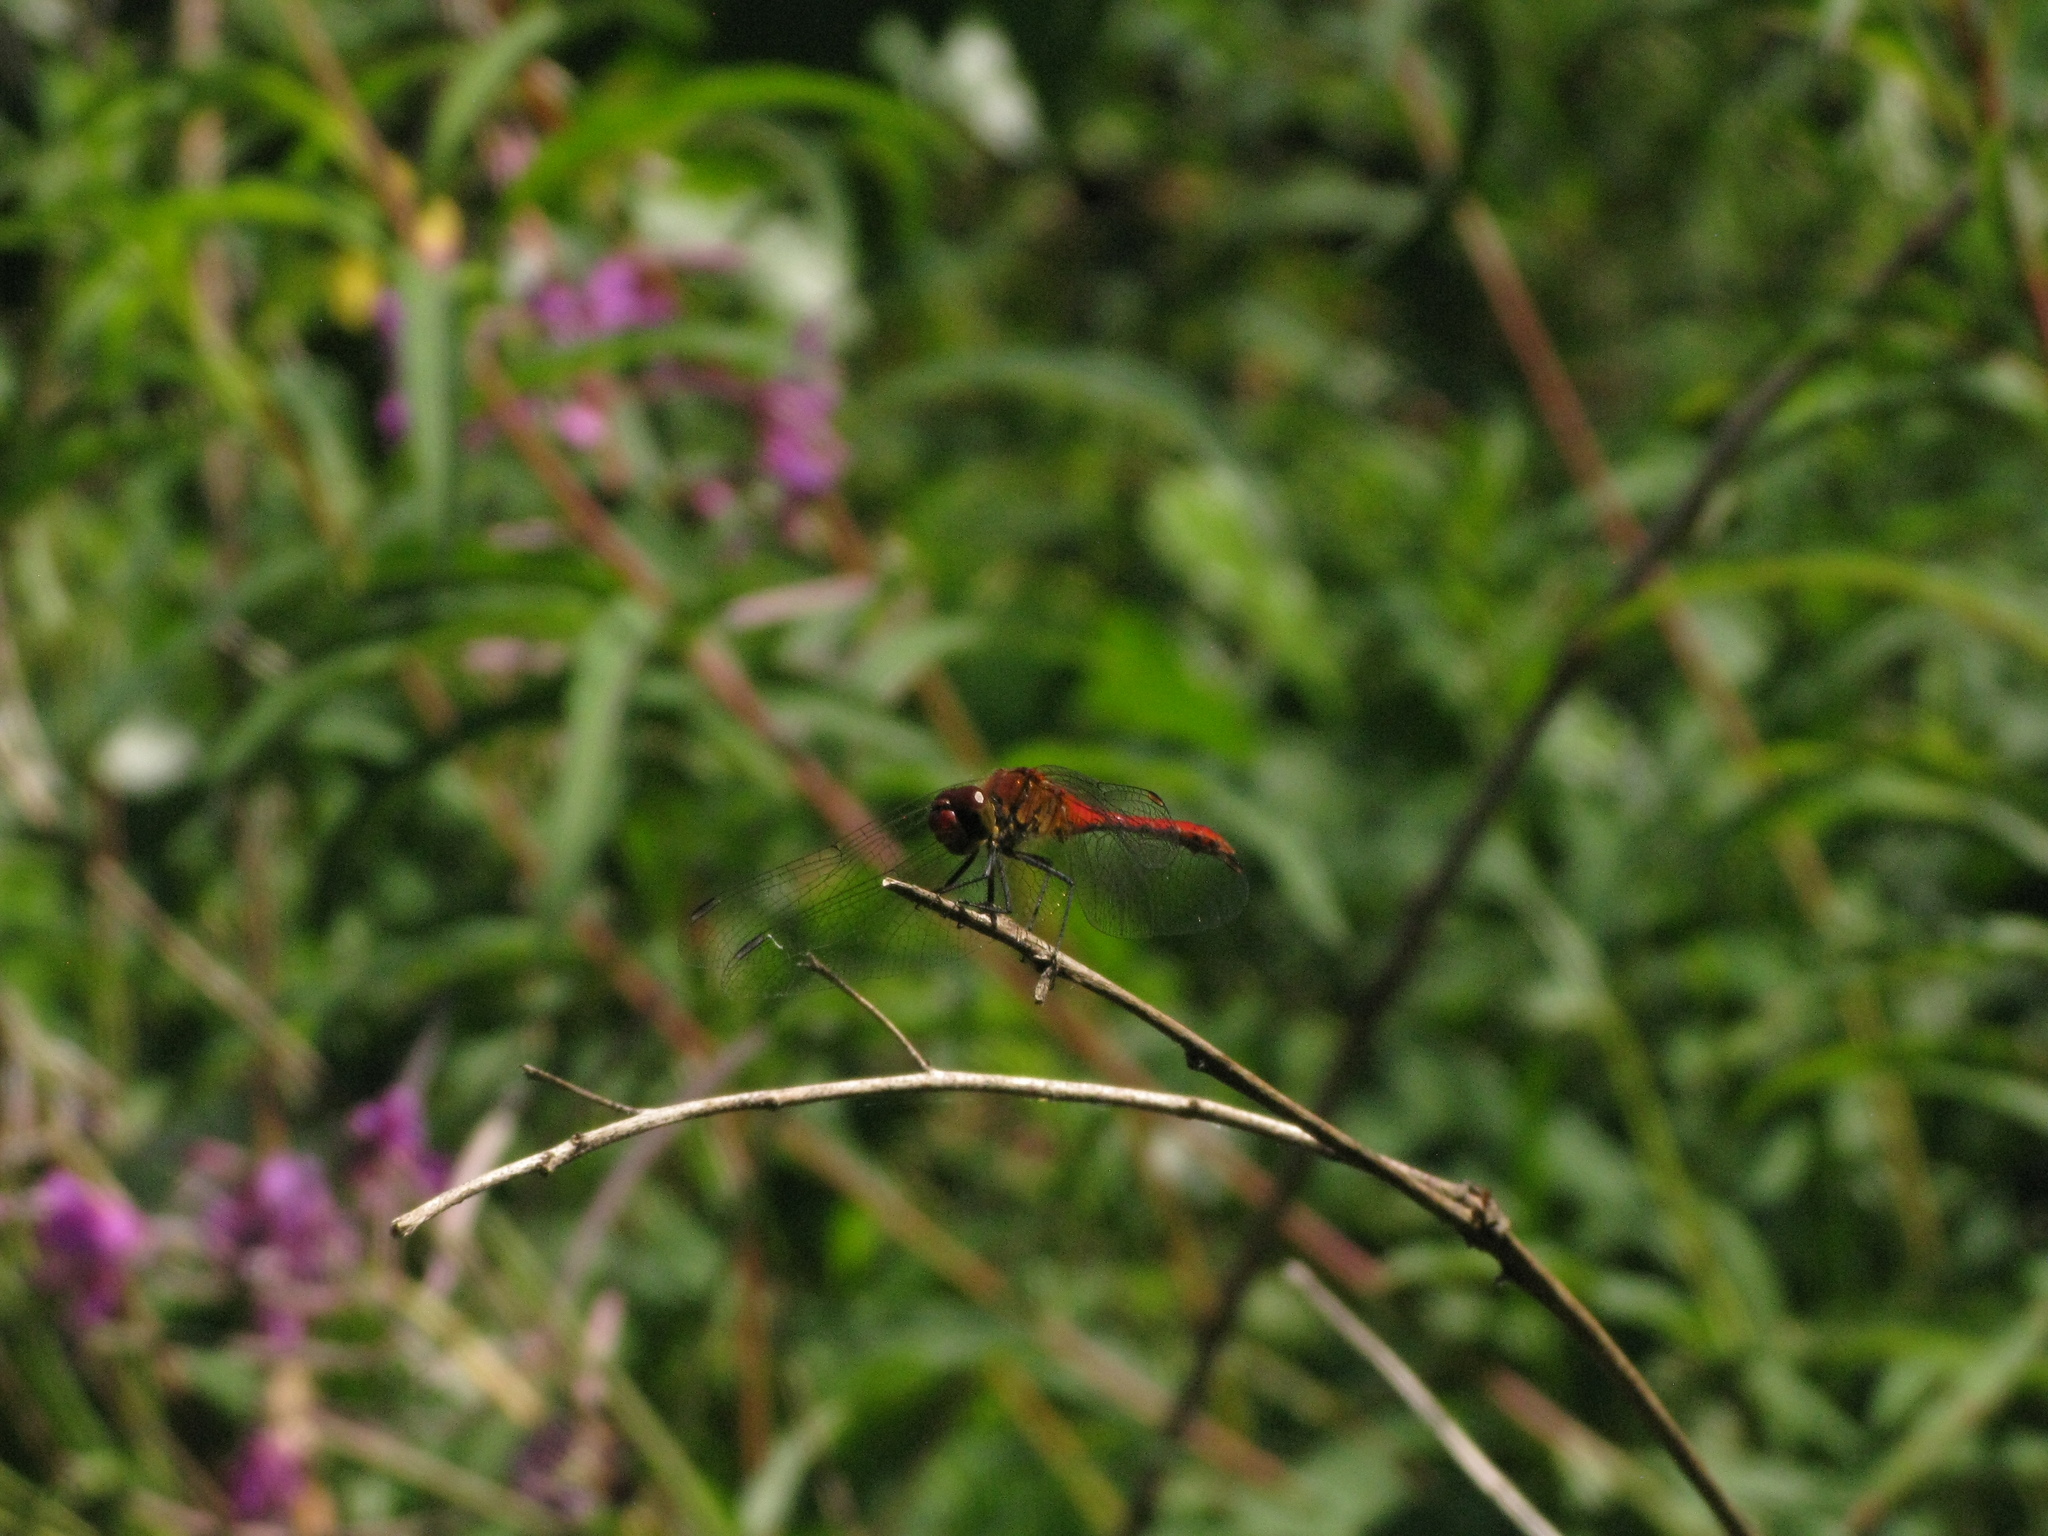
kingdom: Animalia
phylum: Arthropoda
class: Insecta
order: Odonata
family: Libellulidae
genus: Sympetrum
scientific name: Sympetrum sanguineum
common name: Ruddy darter
